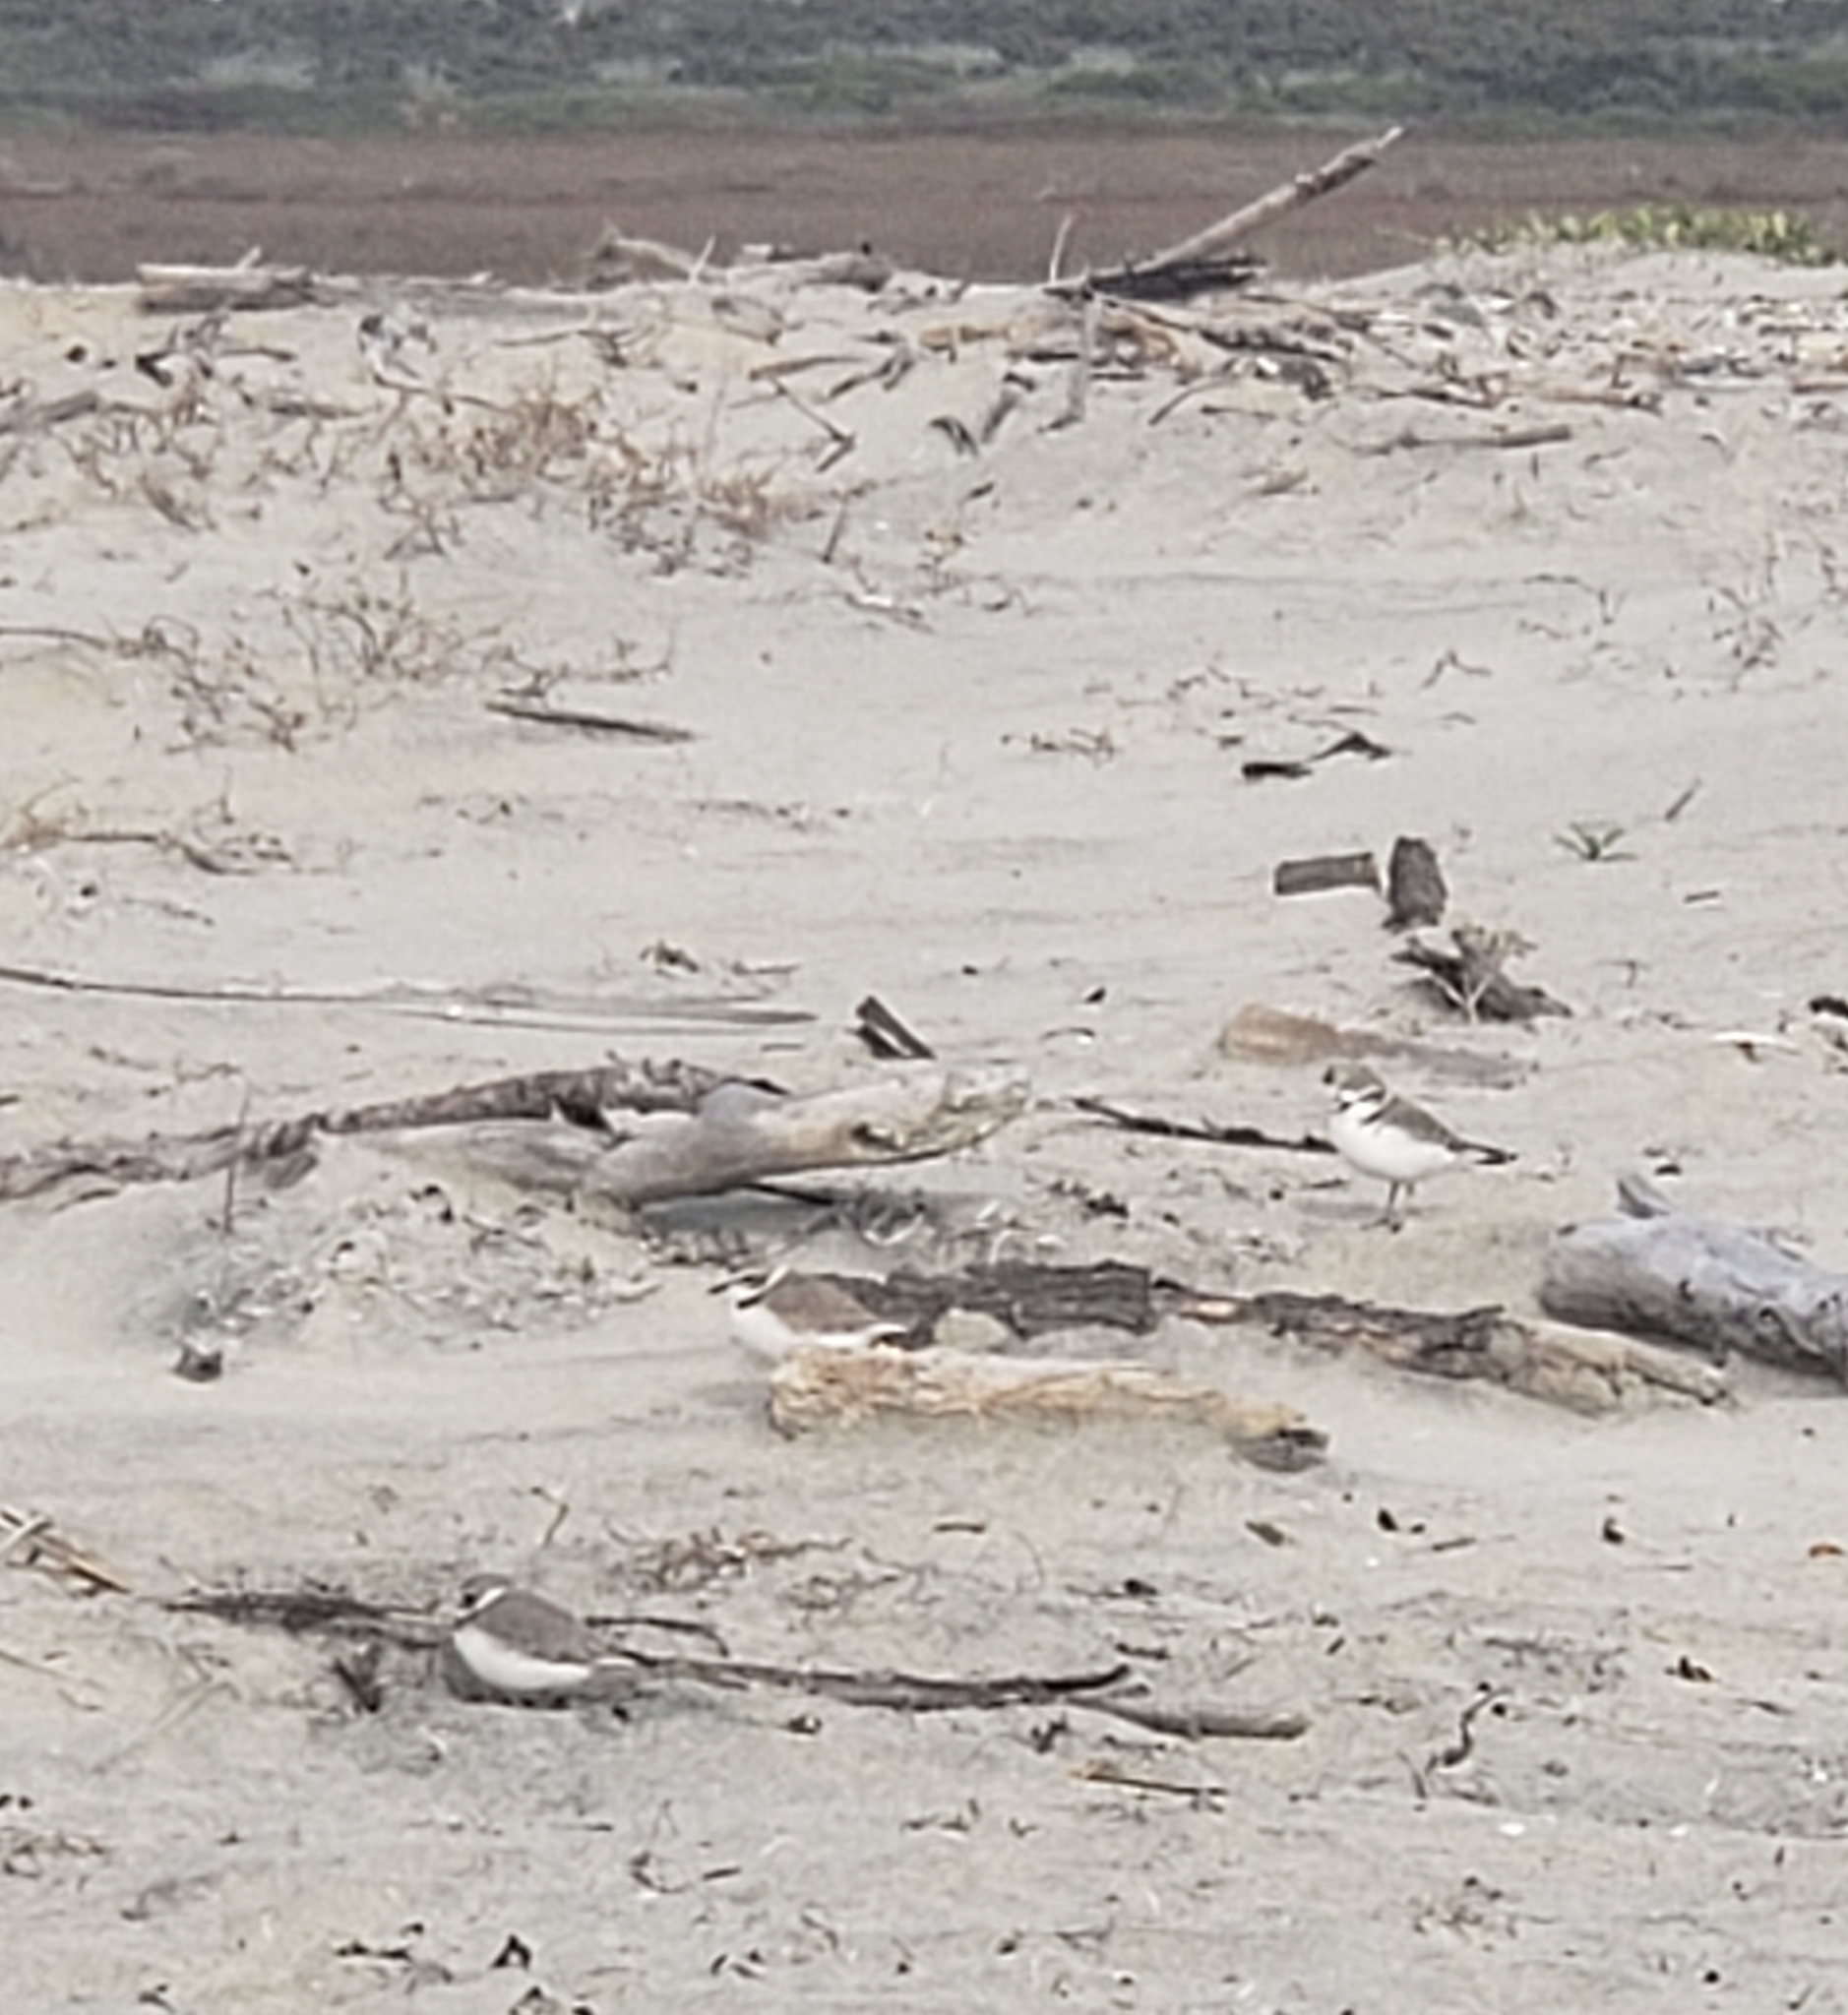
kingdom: Animalia
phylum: Chordata
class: Aves
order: Charadriiformes
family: Charadriidae
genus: Anarhynchus
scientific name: Anarhynchus
